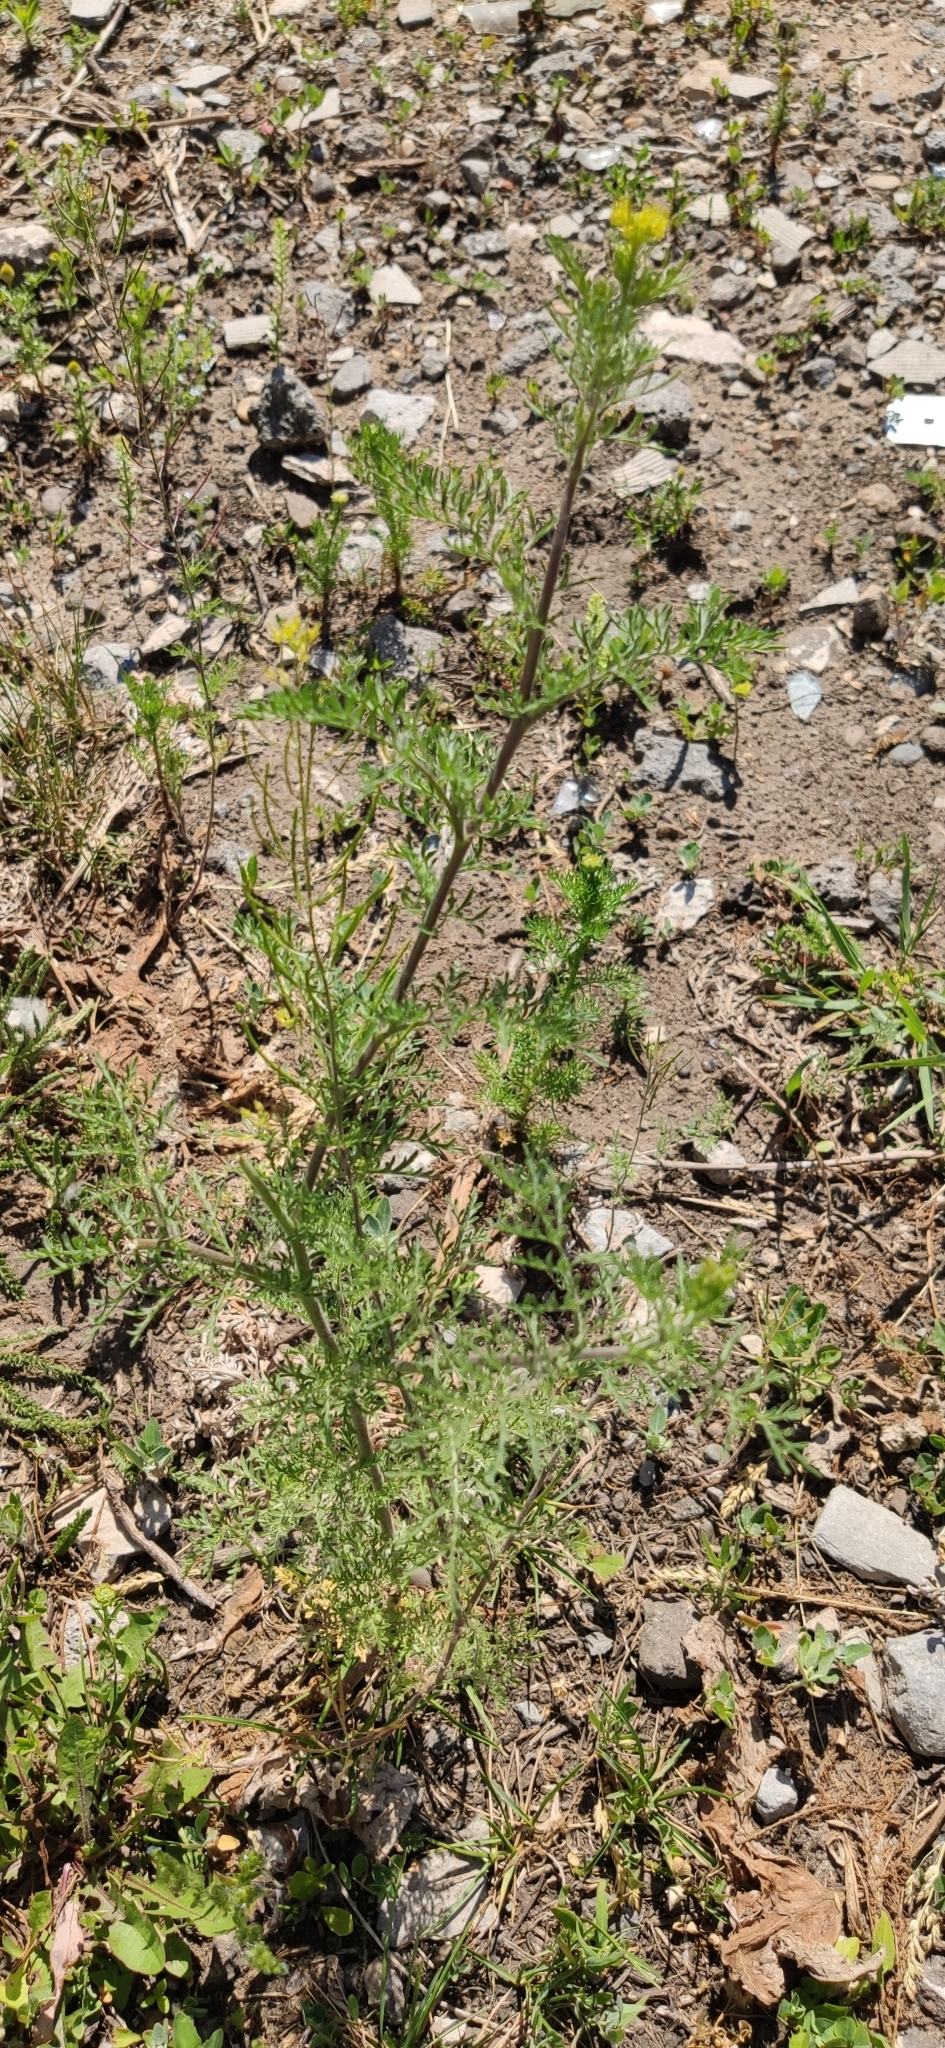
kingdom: Plantae
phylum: Tracheophyta
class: Magnoliopsida
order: Brassicales
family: Brassicaceae
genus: Descurainia
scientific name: Descurainia sophia
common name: Flixweed
